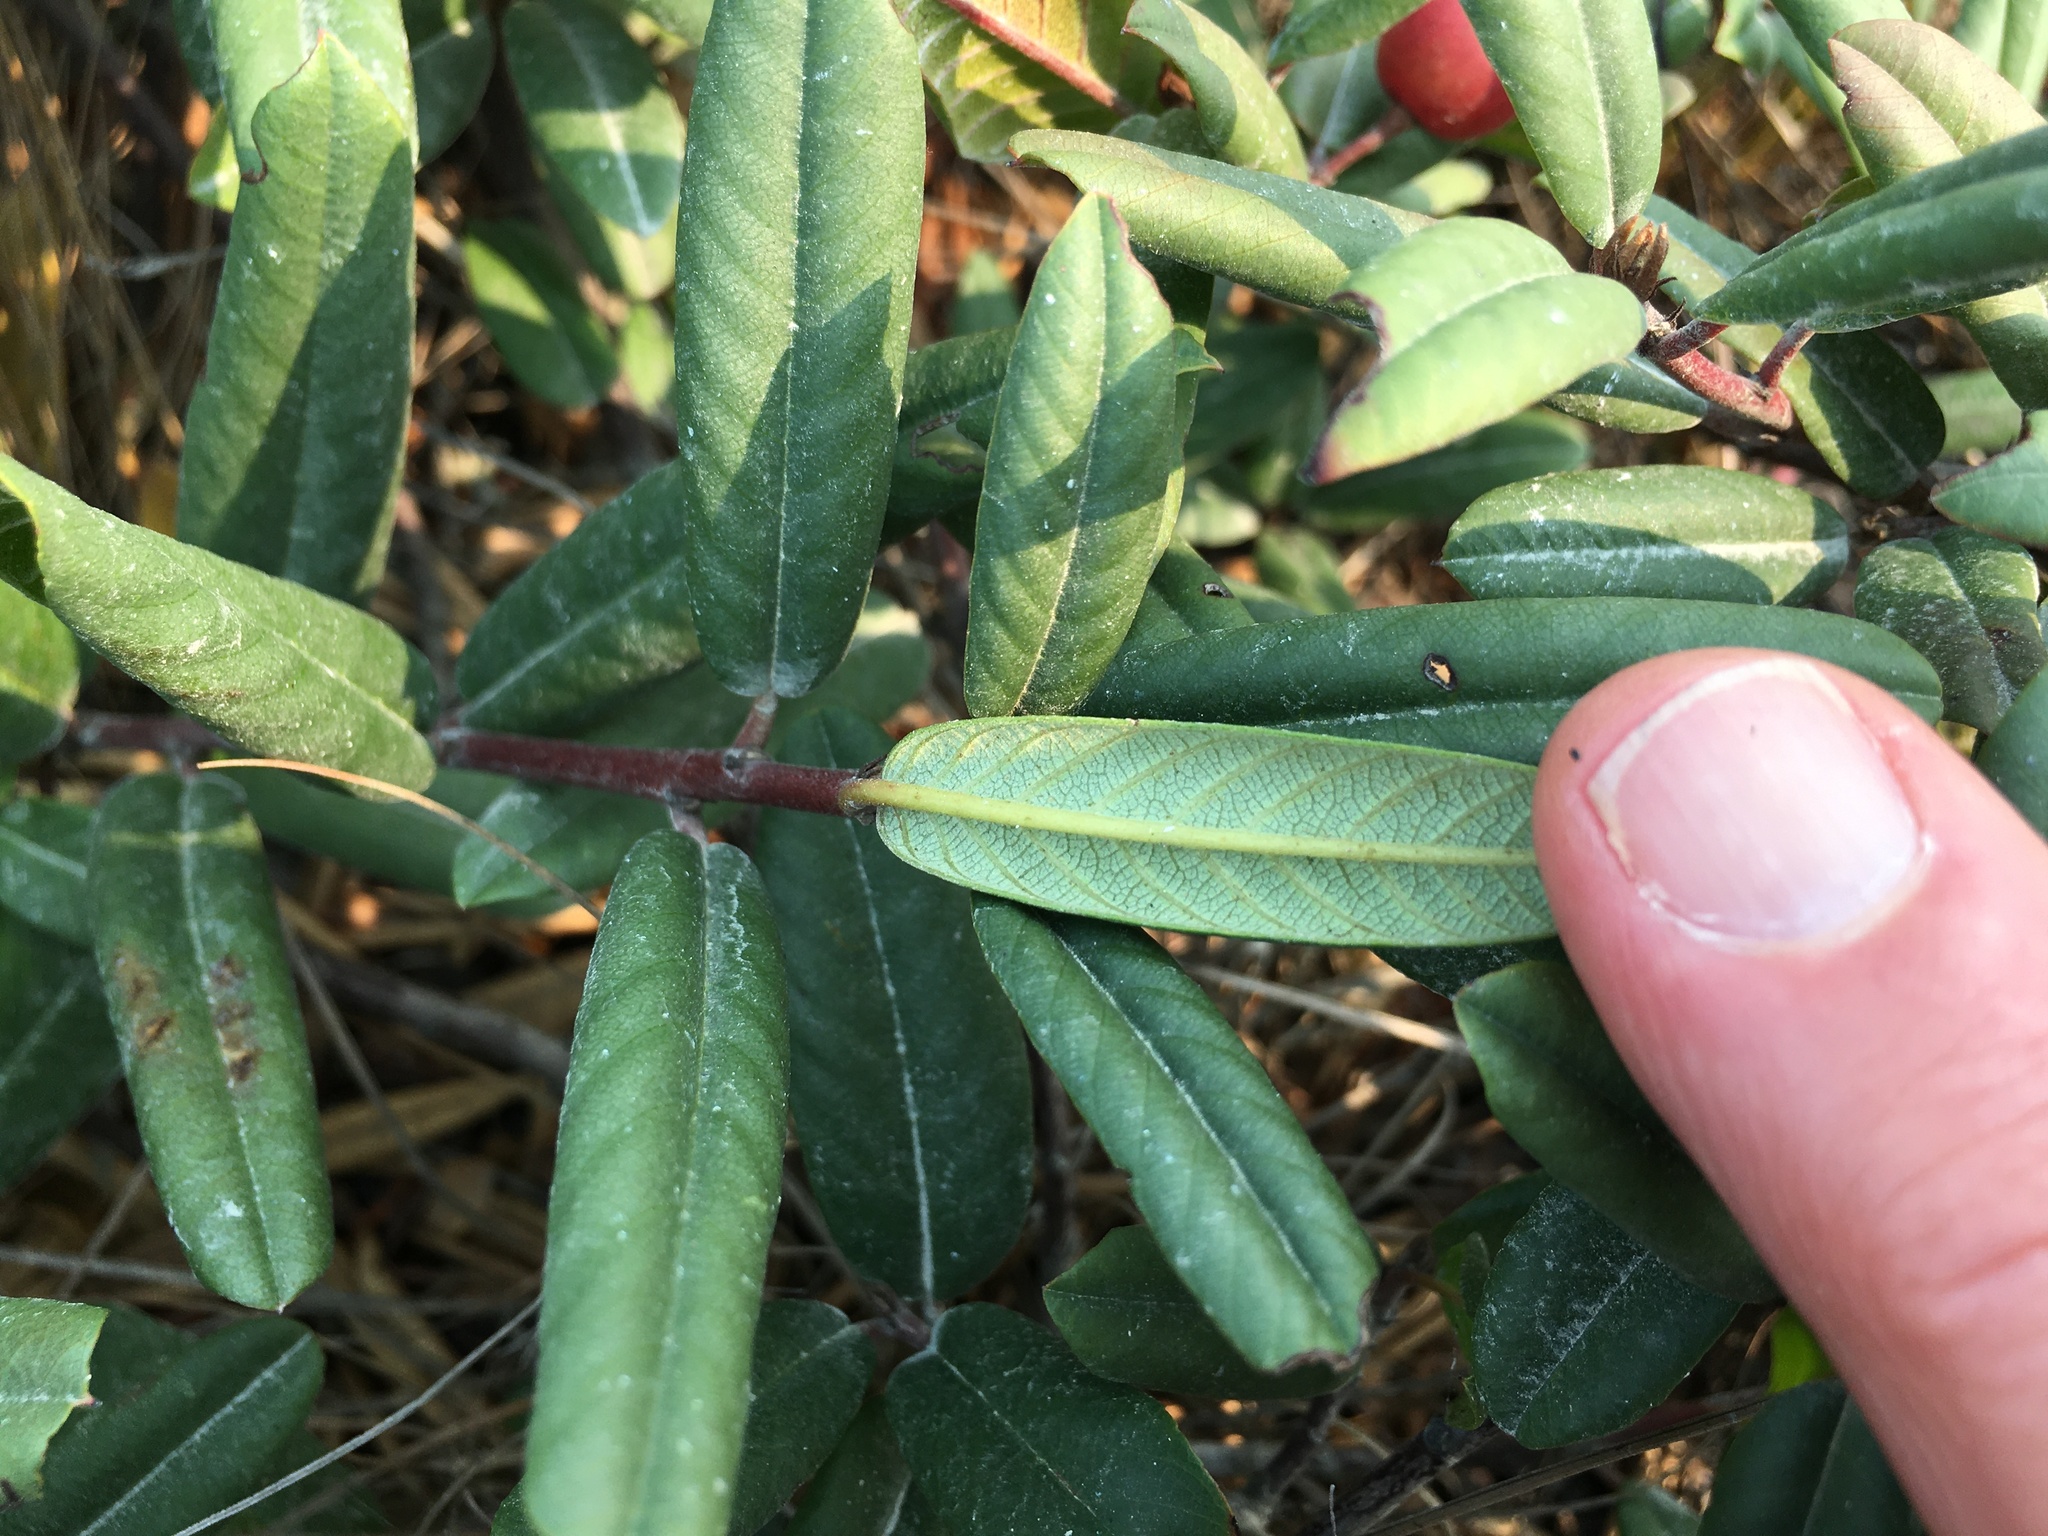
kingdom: Plantae
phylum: Tracheophyta
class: Magnoliopsida
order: Rosales
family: Rhamnaceae
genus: Frangula
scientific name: Frangula californica
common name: California buckthorn
